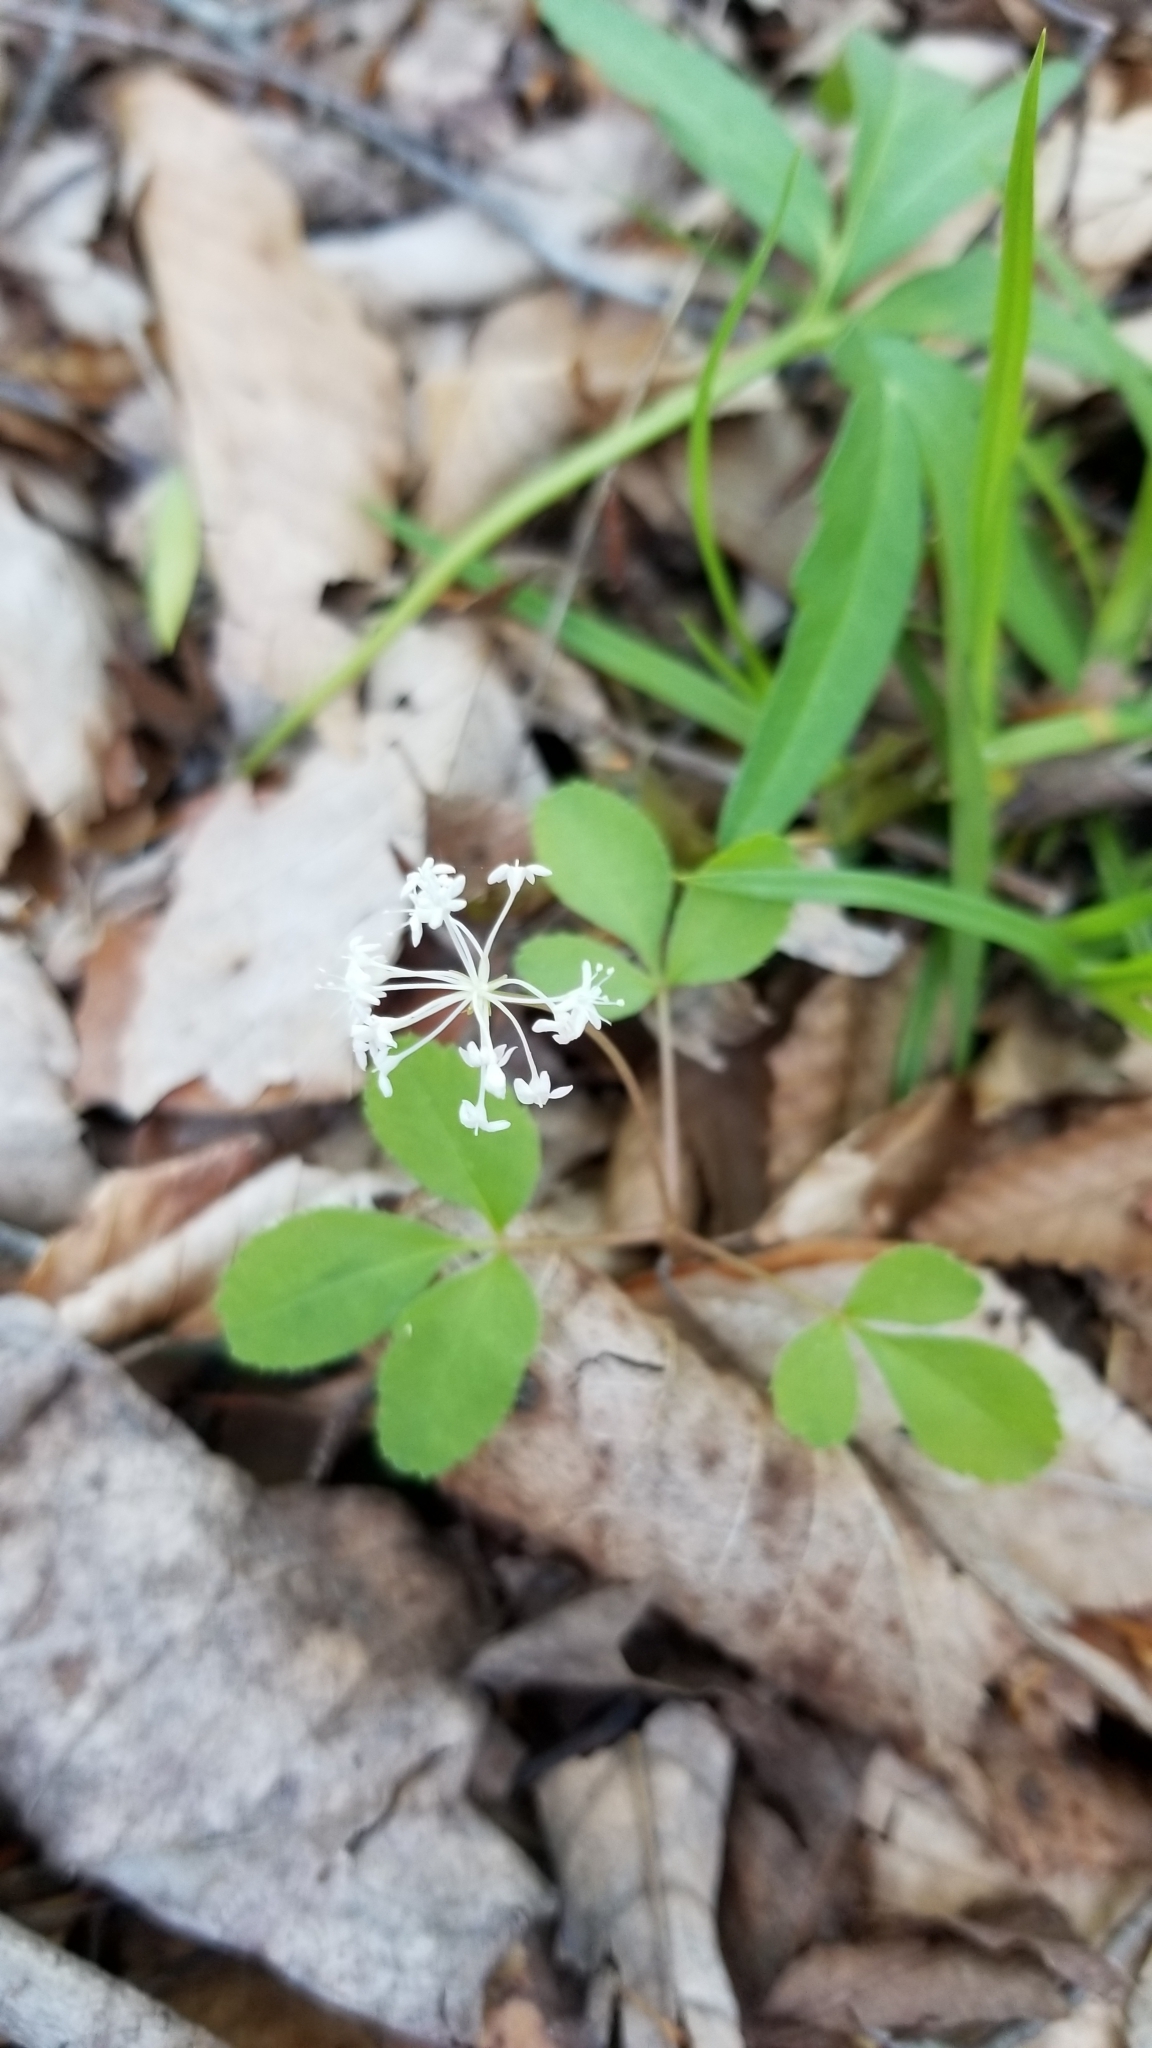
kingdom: Plantae
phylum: Tracheophyta
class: Magnoliopsida
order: Apiales
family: Araliaceae
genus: Panax
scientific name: Panax trifolius
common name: Dwarf ginseng
